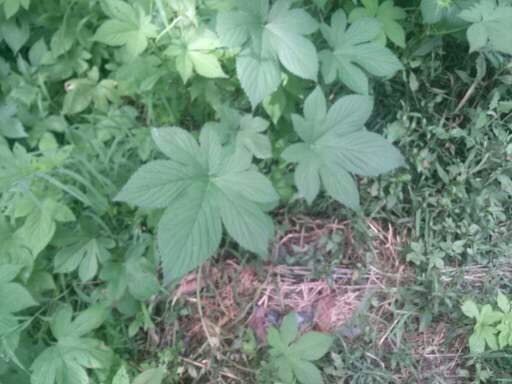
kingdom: Plantae
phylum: Tracheophyta
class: Magnoliopsida
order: Rosales
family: Cannabaceae
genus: Humulus
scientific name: Humulus scandens
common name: Japanese hop
